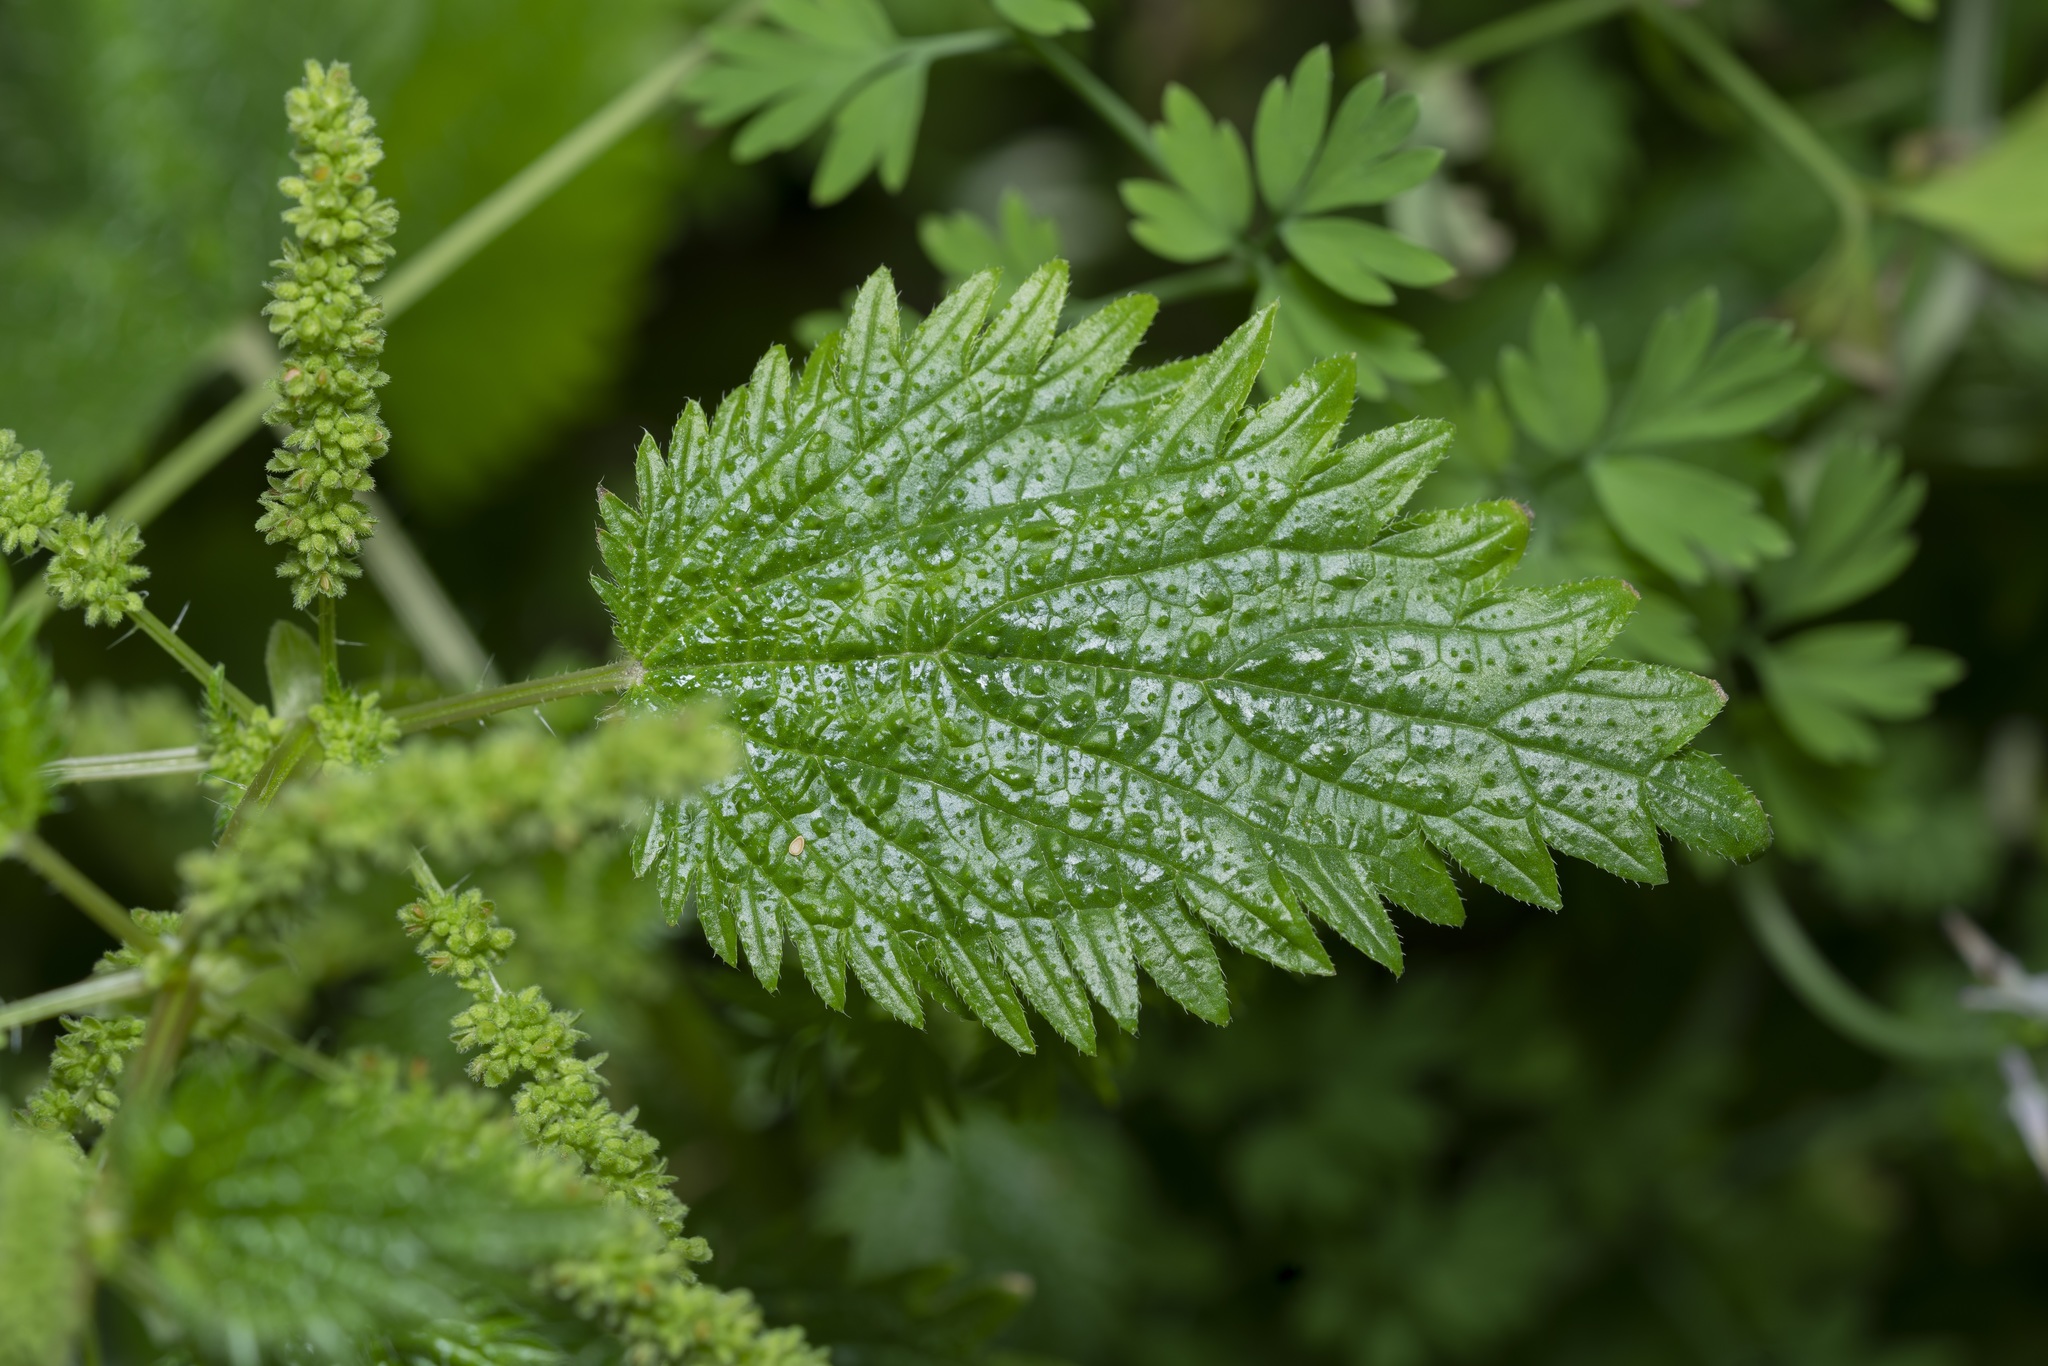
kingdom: Plantae
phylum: Tracheophyta
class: Magnoliopsida
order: Rosales
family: Urticaceae
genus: Urtica
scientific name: Urtica membranacea
